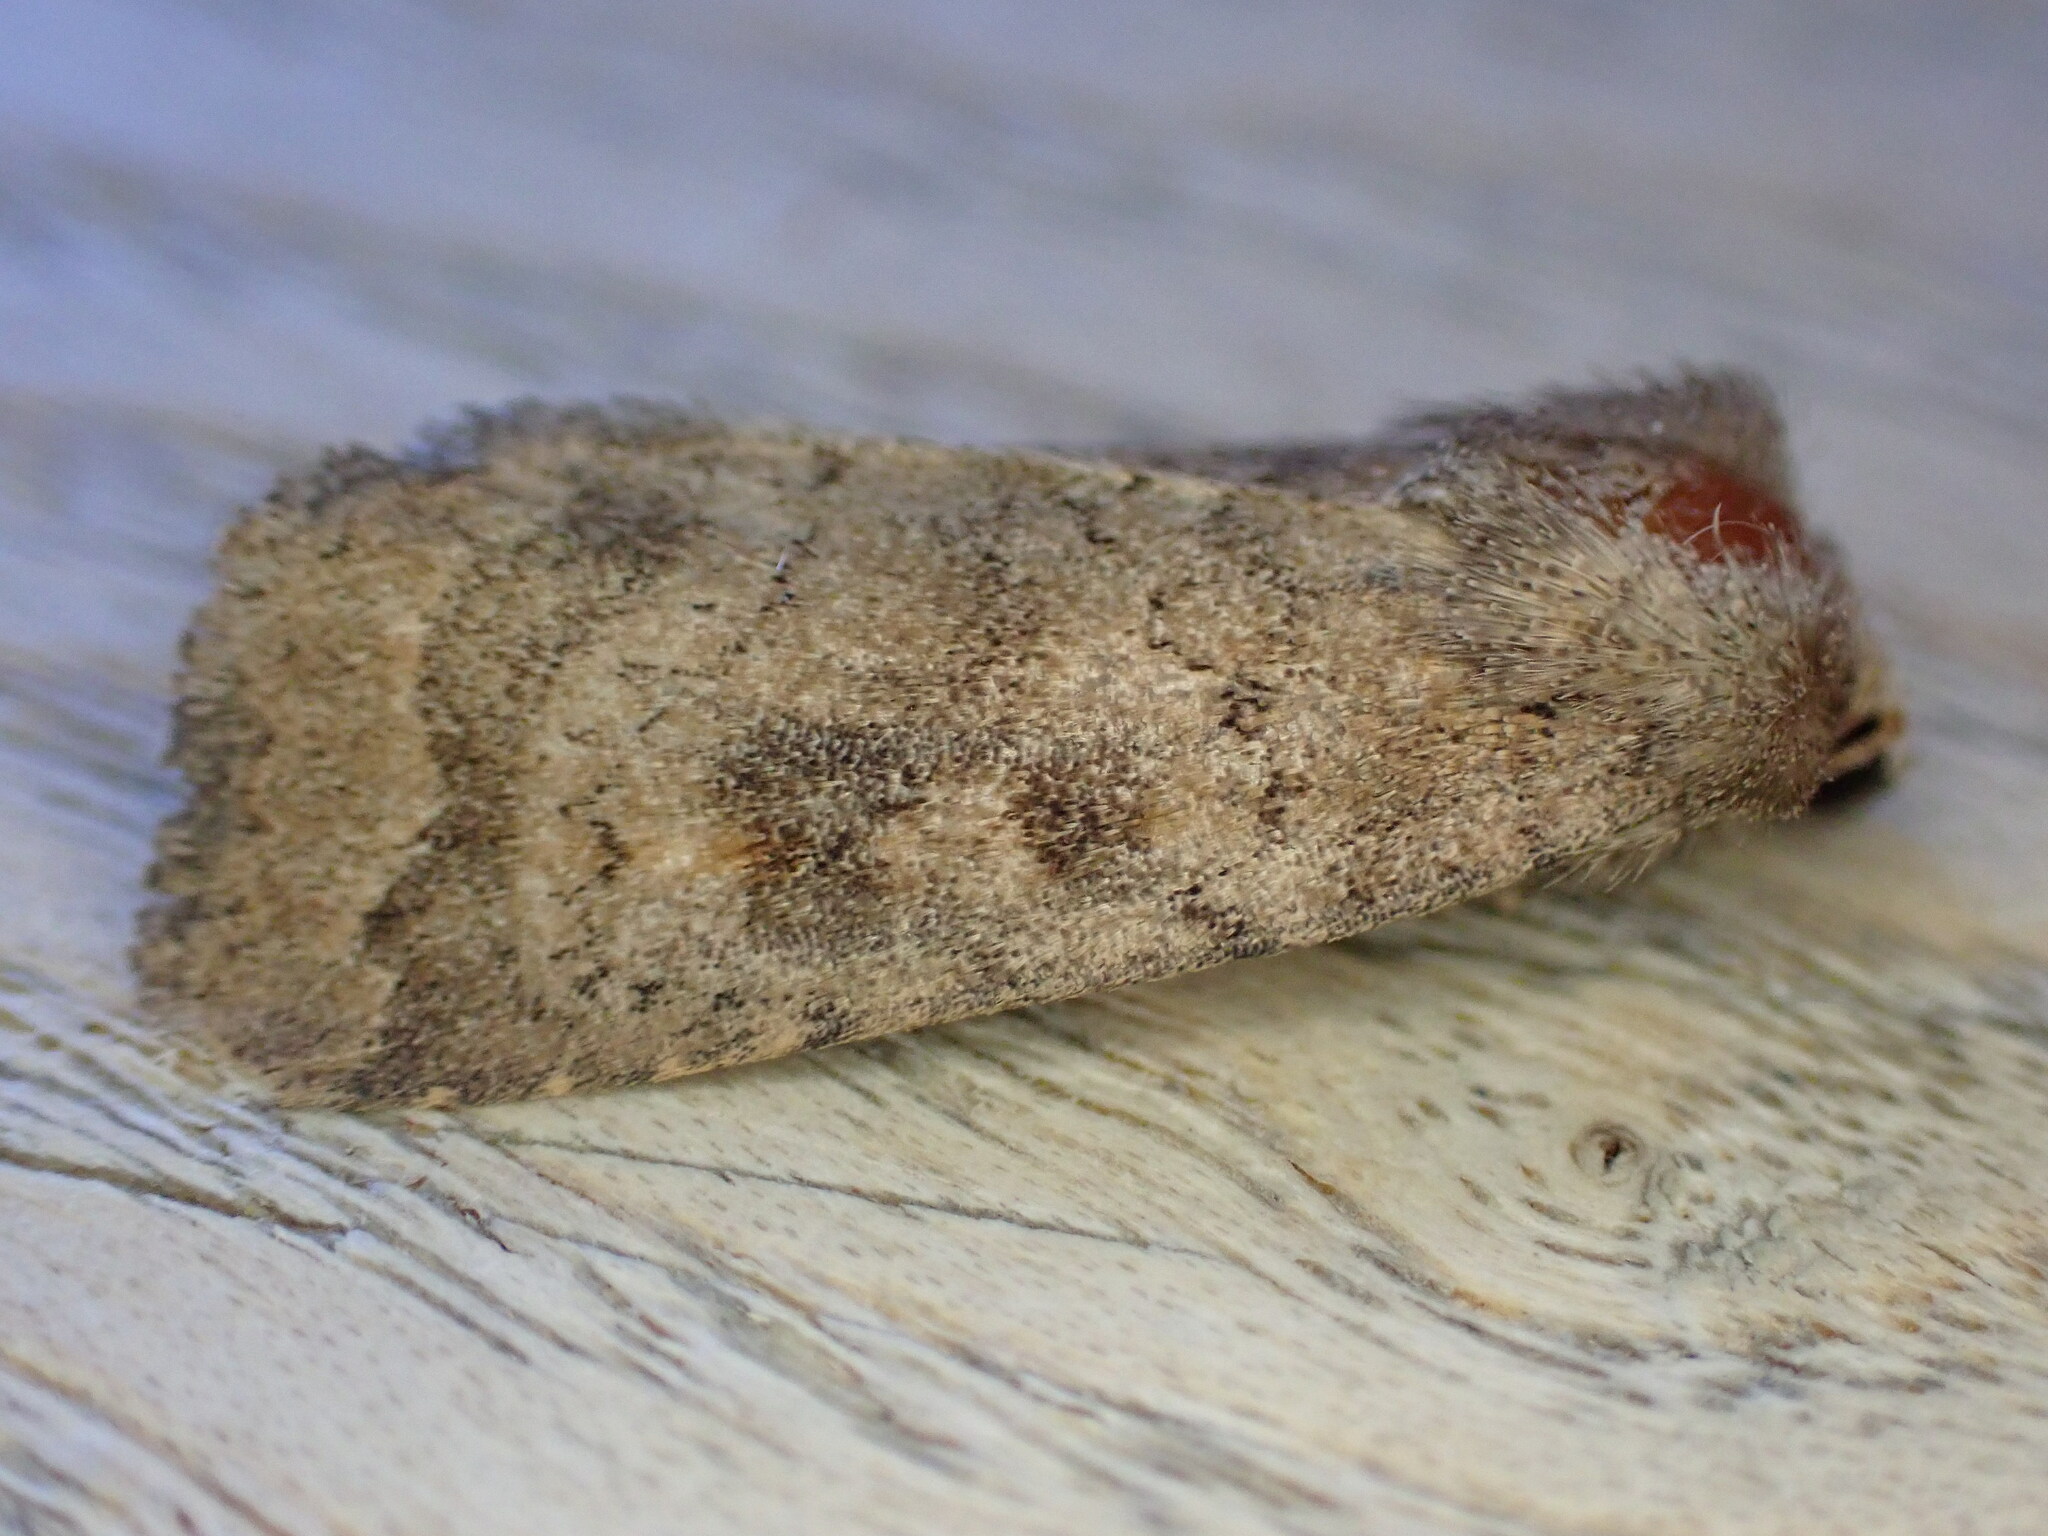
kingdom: Animalia
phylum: Arthropoda
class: Insecta
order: Lepidoptera
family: Noctuidae
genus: Caradrina
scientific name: Caradrina morpheus
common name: Mottled rustic
